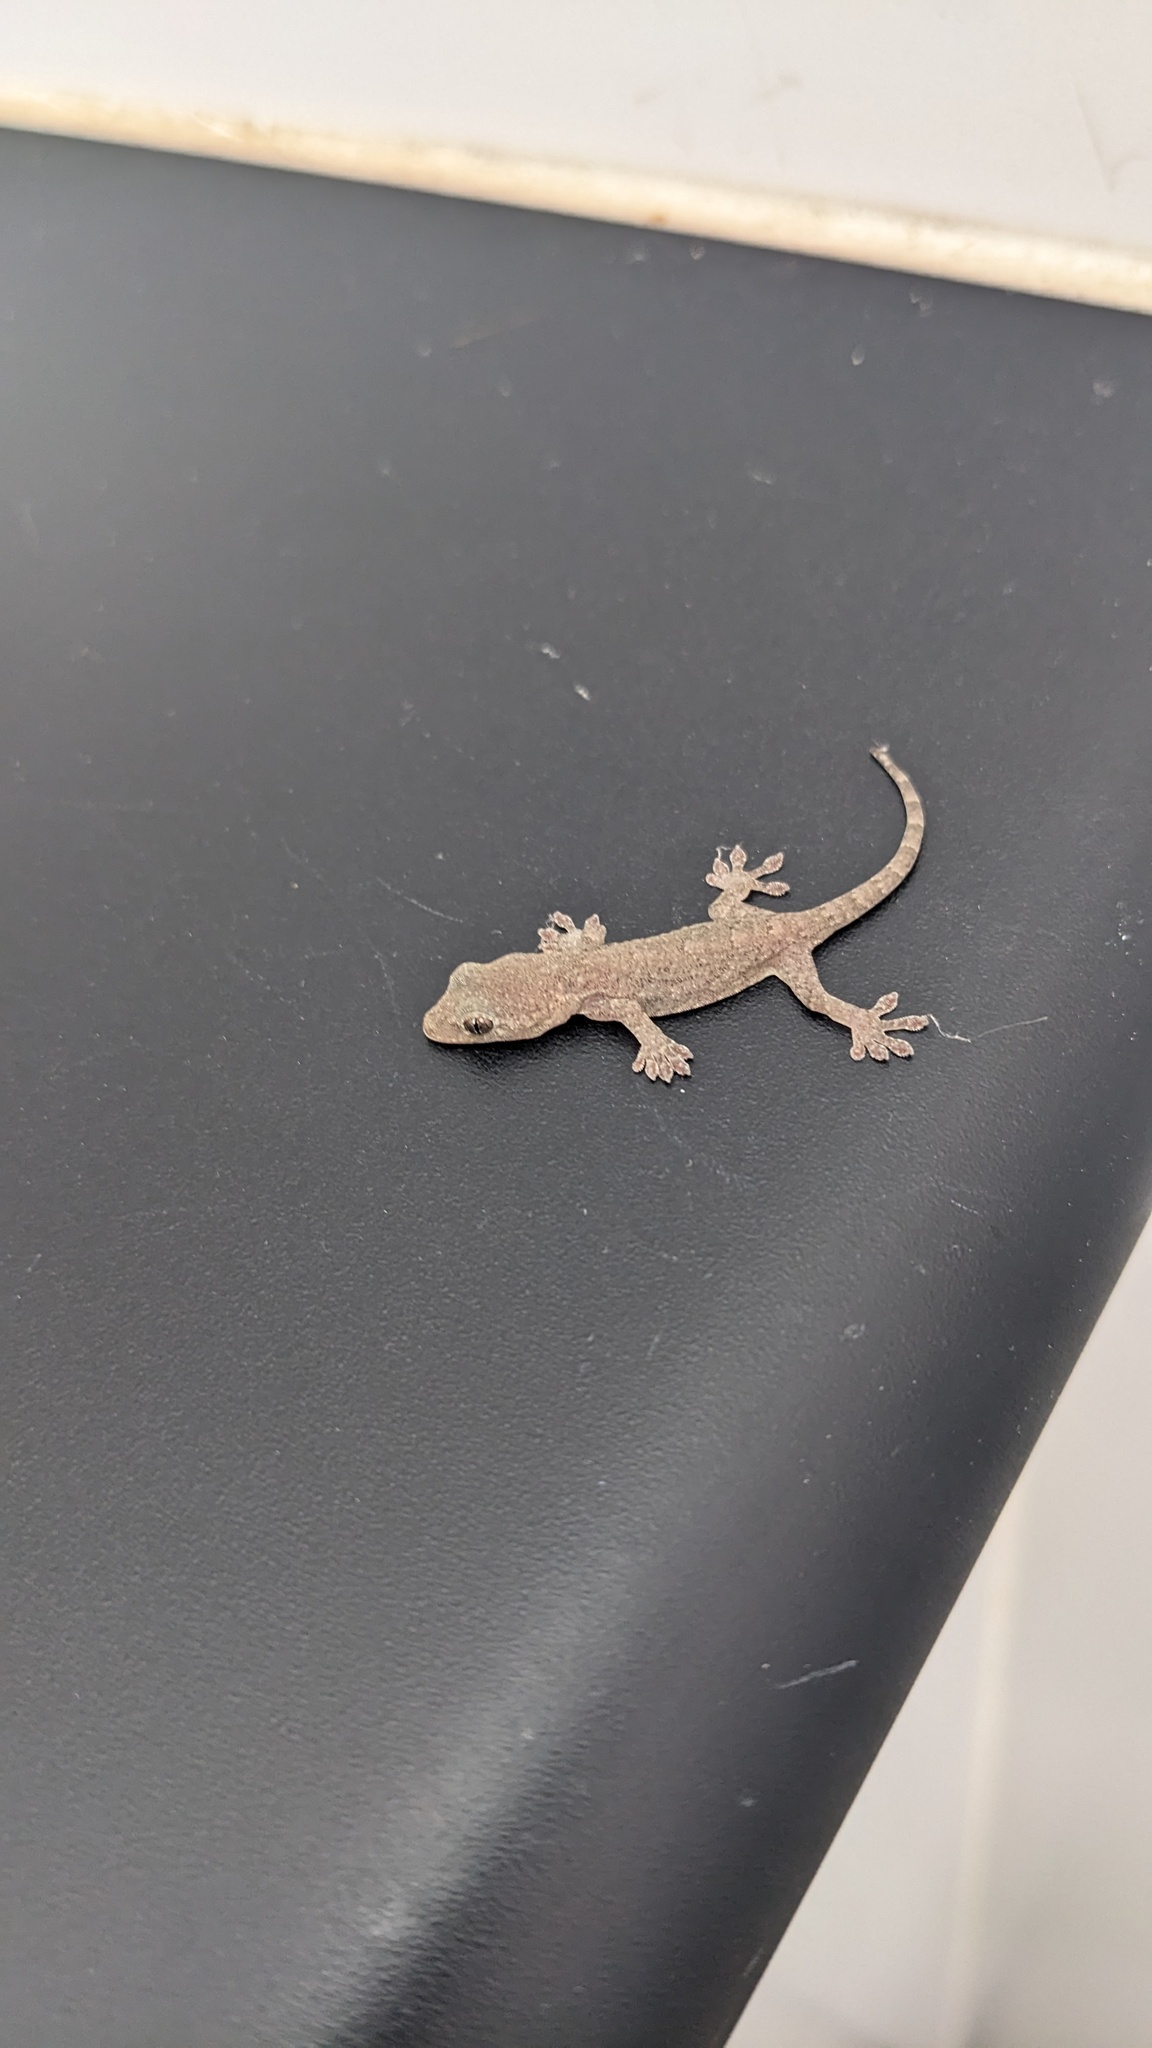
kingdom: Animalia
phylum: Chordata
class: Squamata
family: Gekkonidae
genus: Gekko
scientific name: Gekko japonicus
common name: Schlegel's japanese gecko
